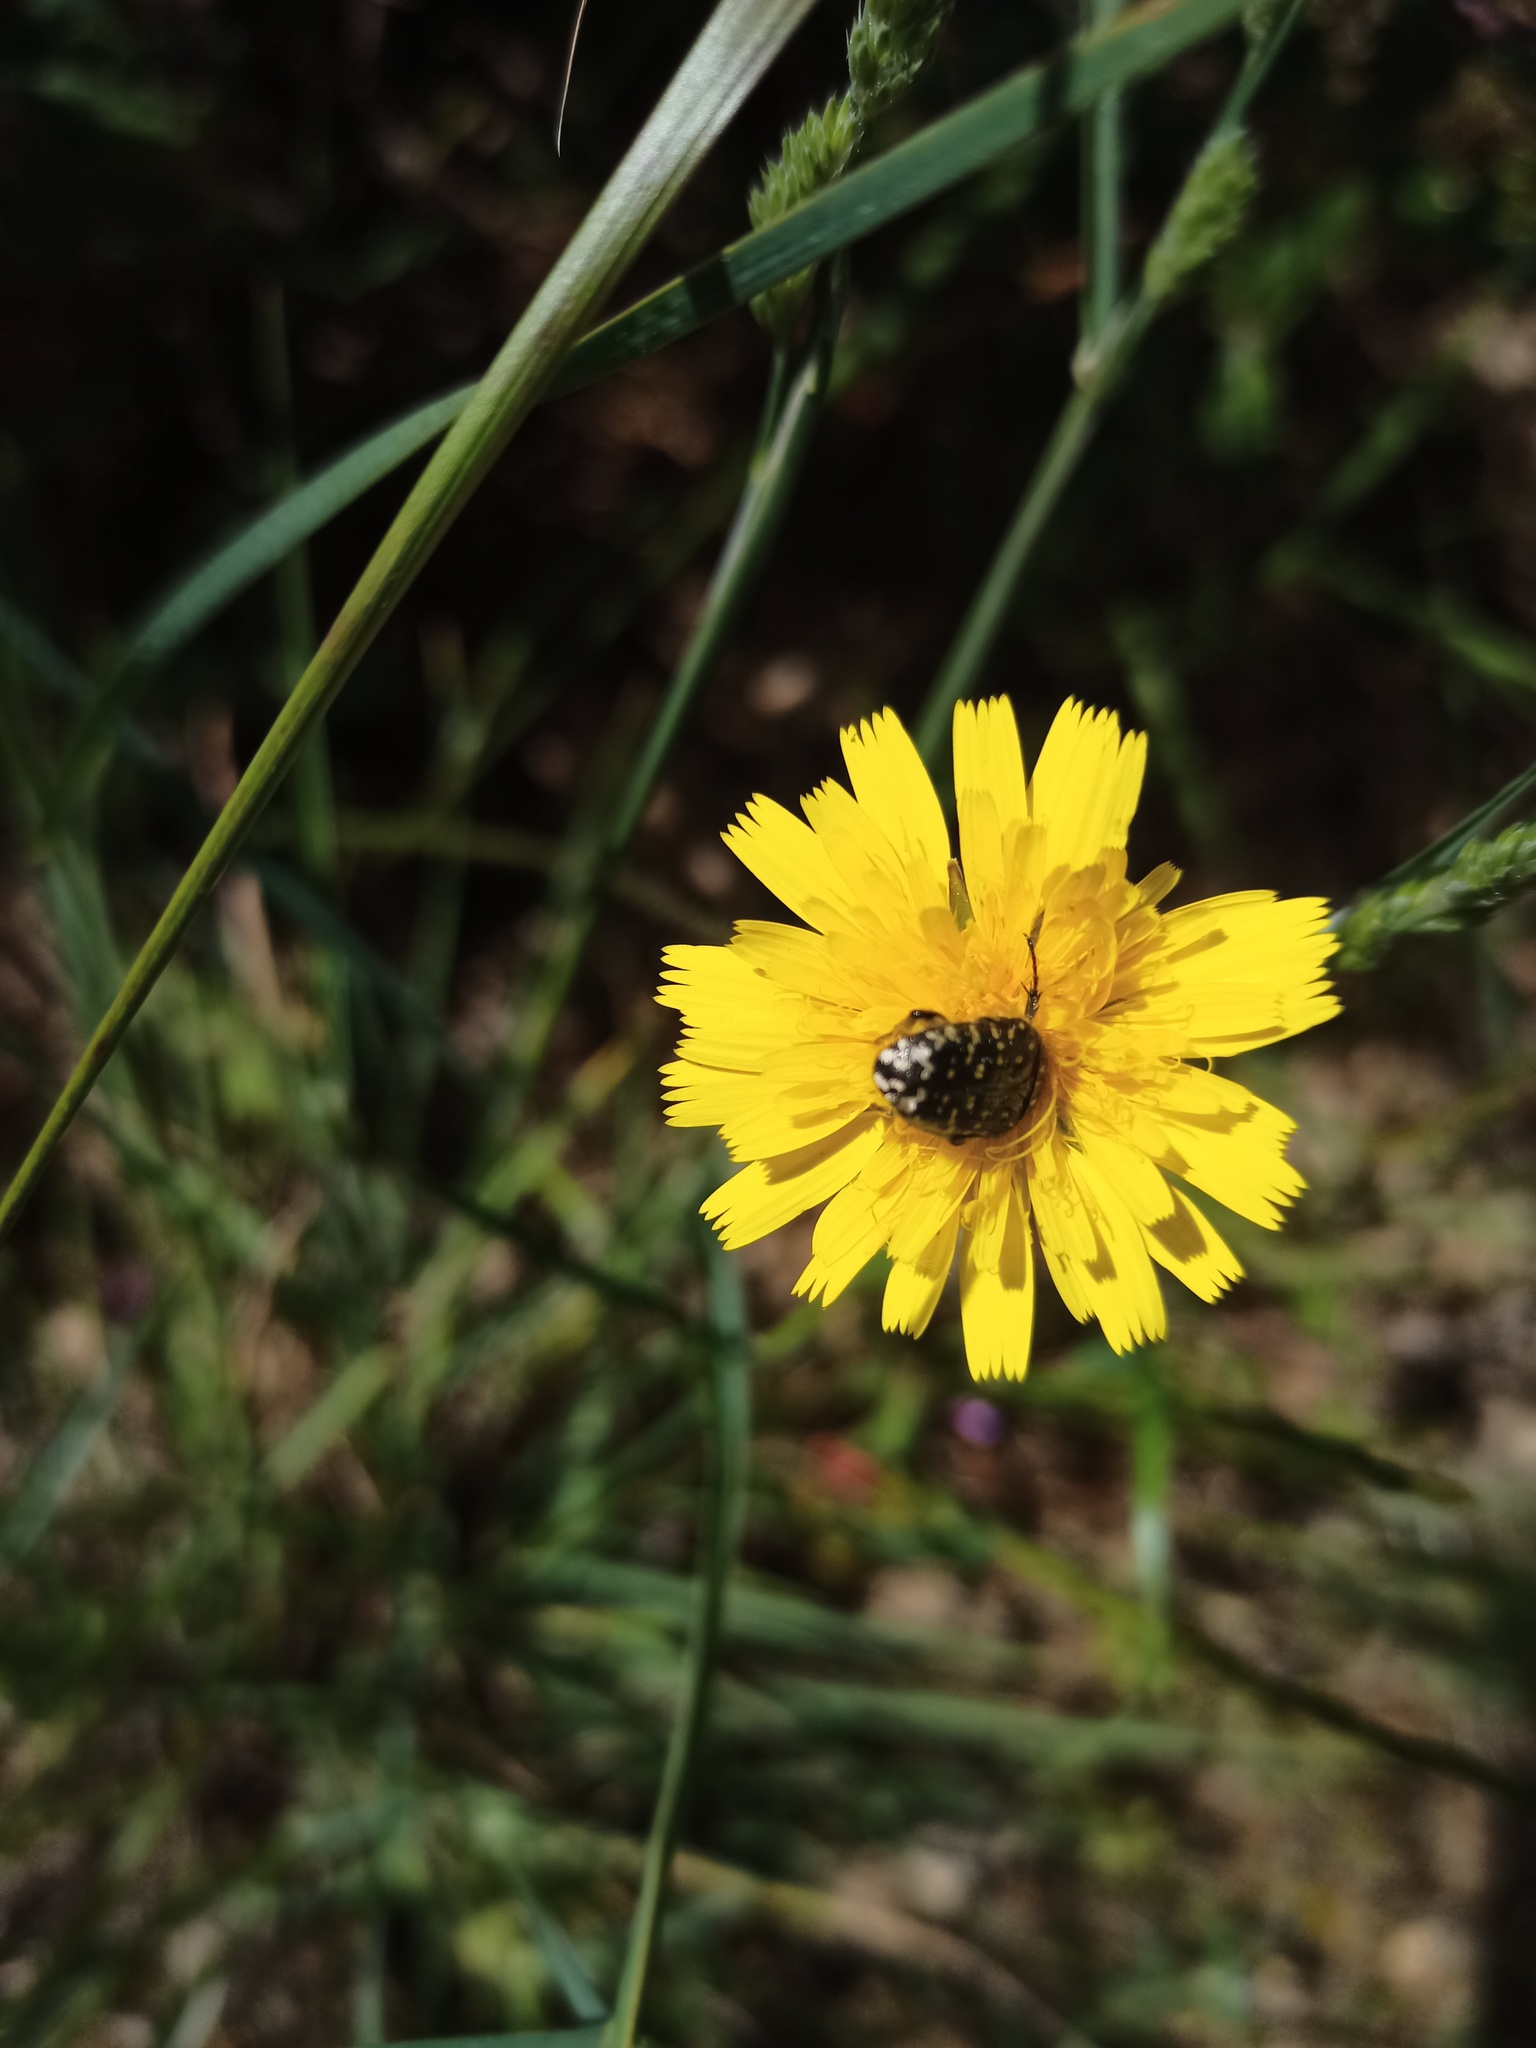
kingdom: Animalia
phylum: Arthropoda
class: Insecta
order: Coleoptera
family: Scarabaeidae
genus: Oxythyrea
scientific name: Oxythyrea funesta
